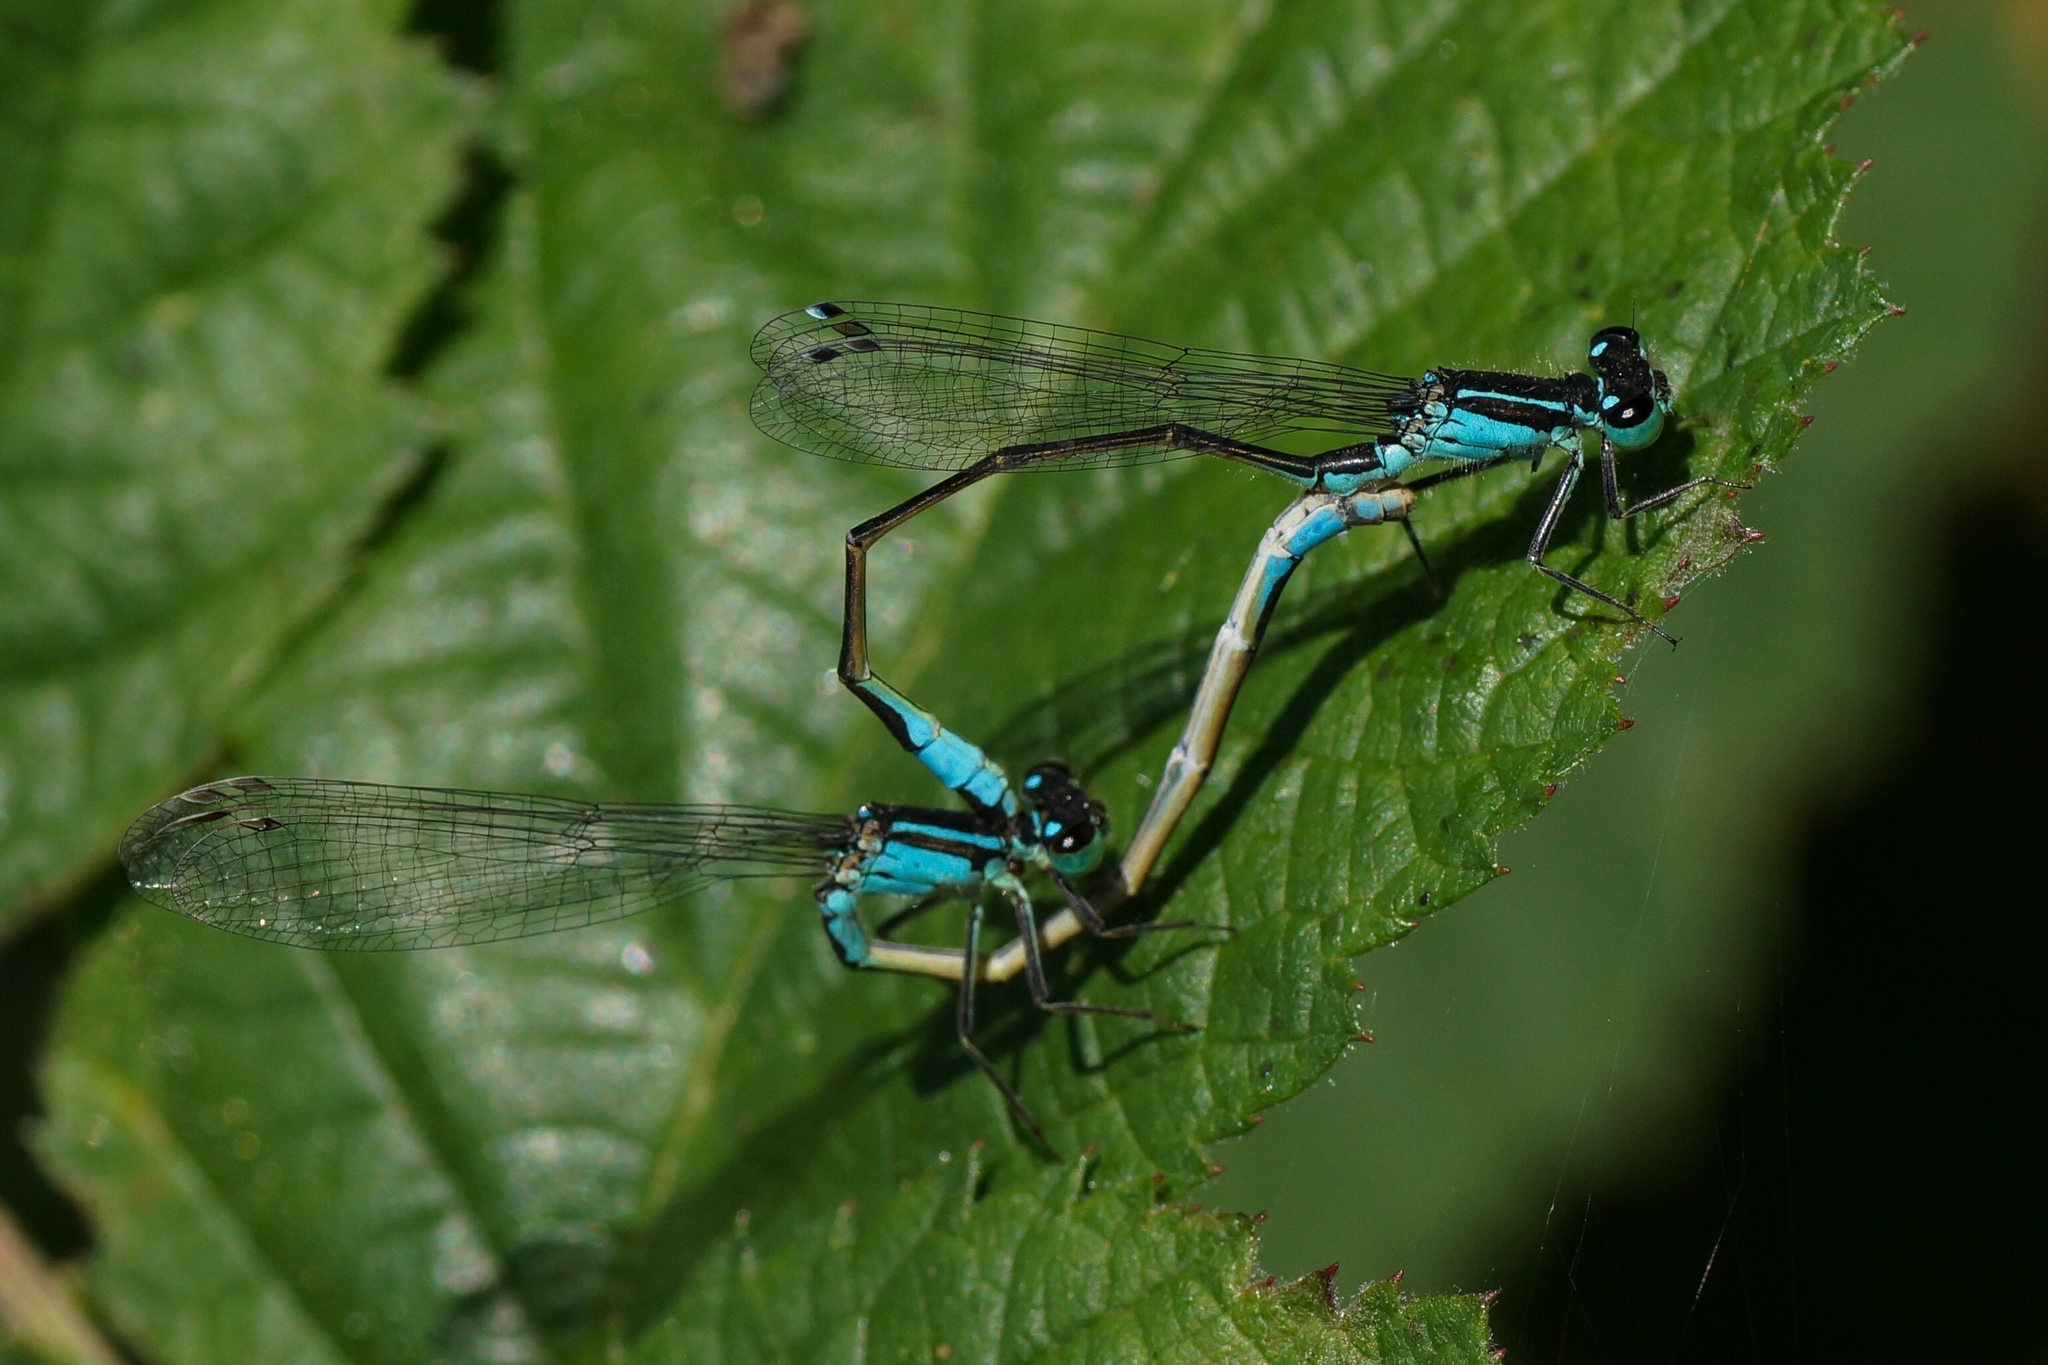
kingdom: Animalia
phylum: Arthropoda
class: Insecta
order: Odonata
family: Coenagrionidae
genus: Ischnura
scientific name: Ischnura elegans
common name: Blue-tailed damselfly
